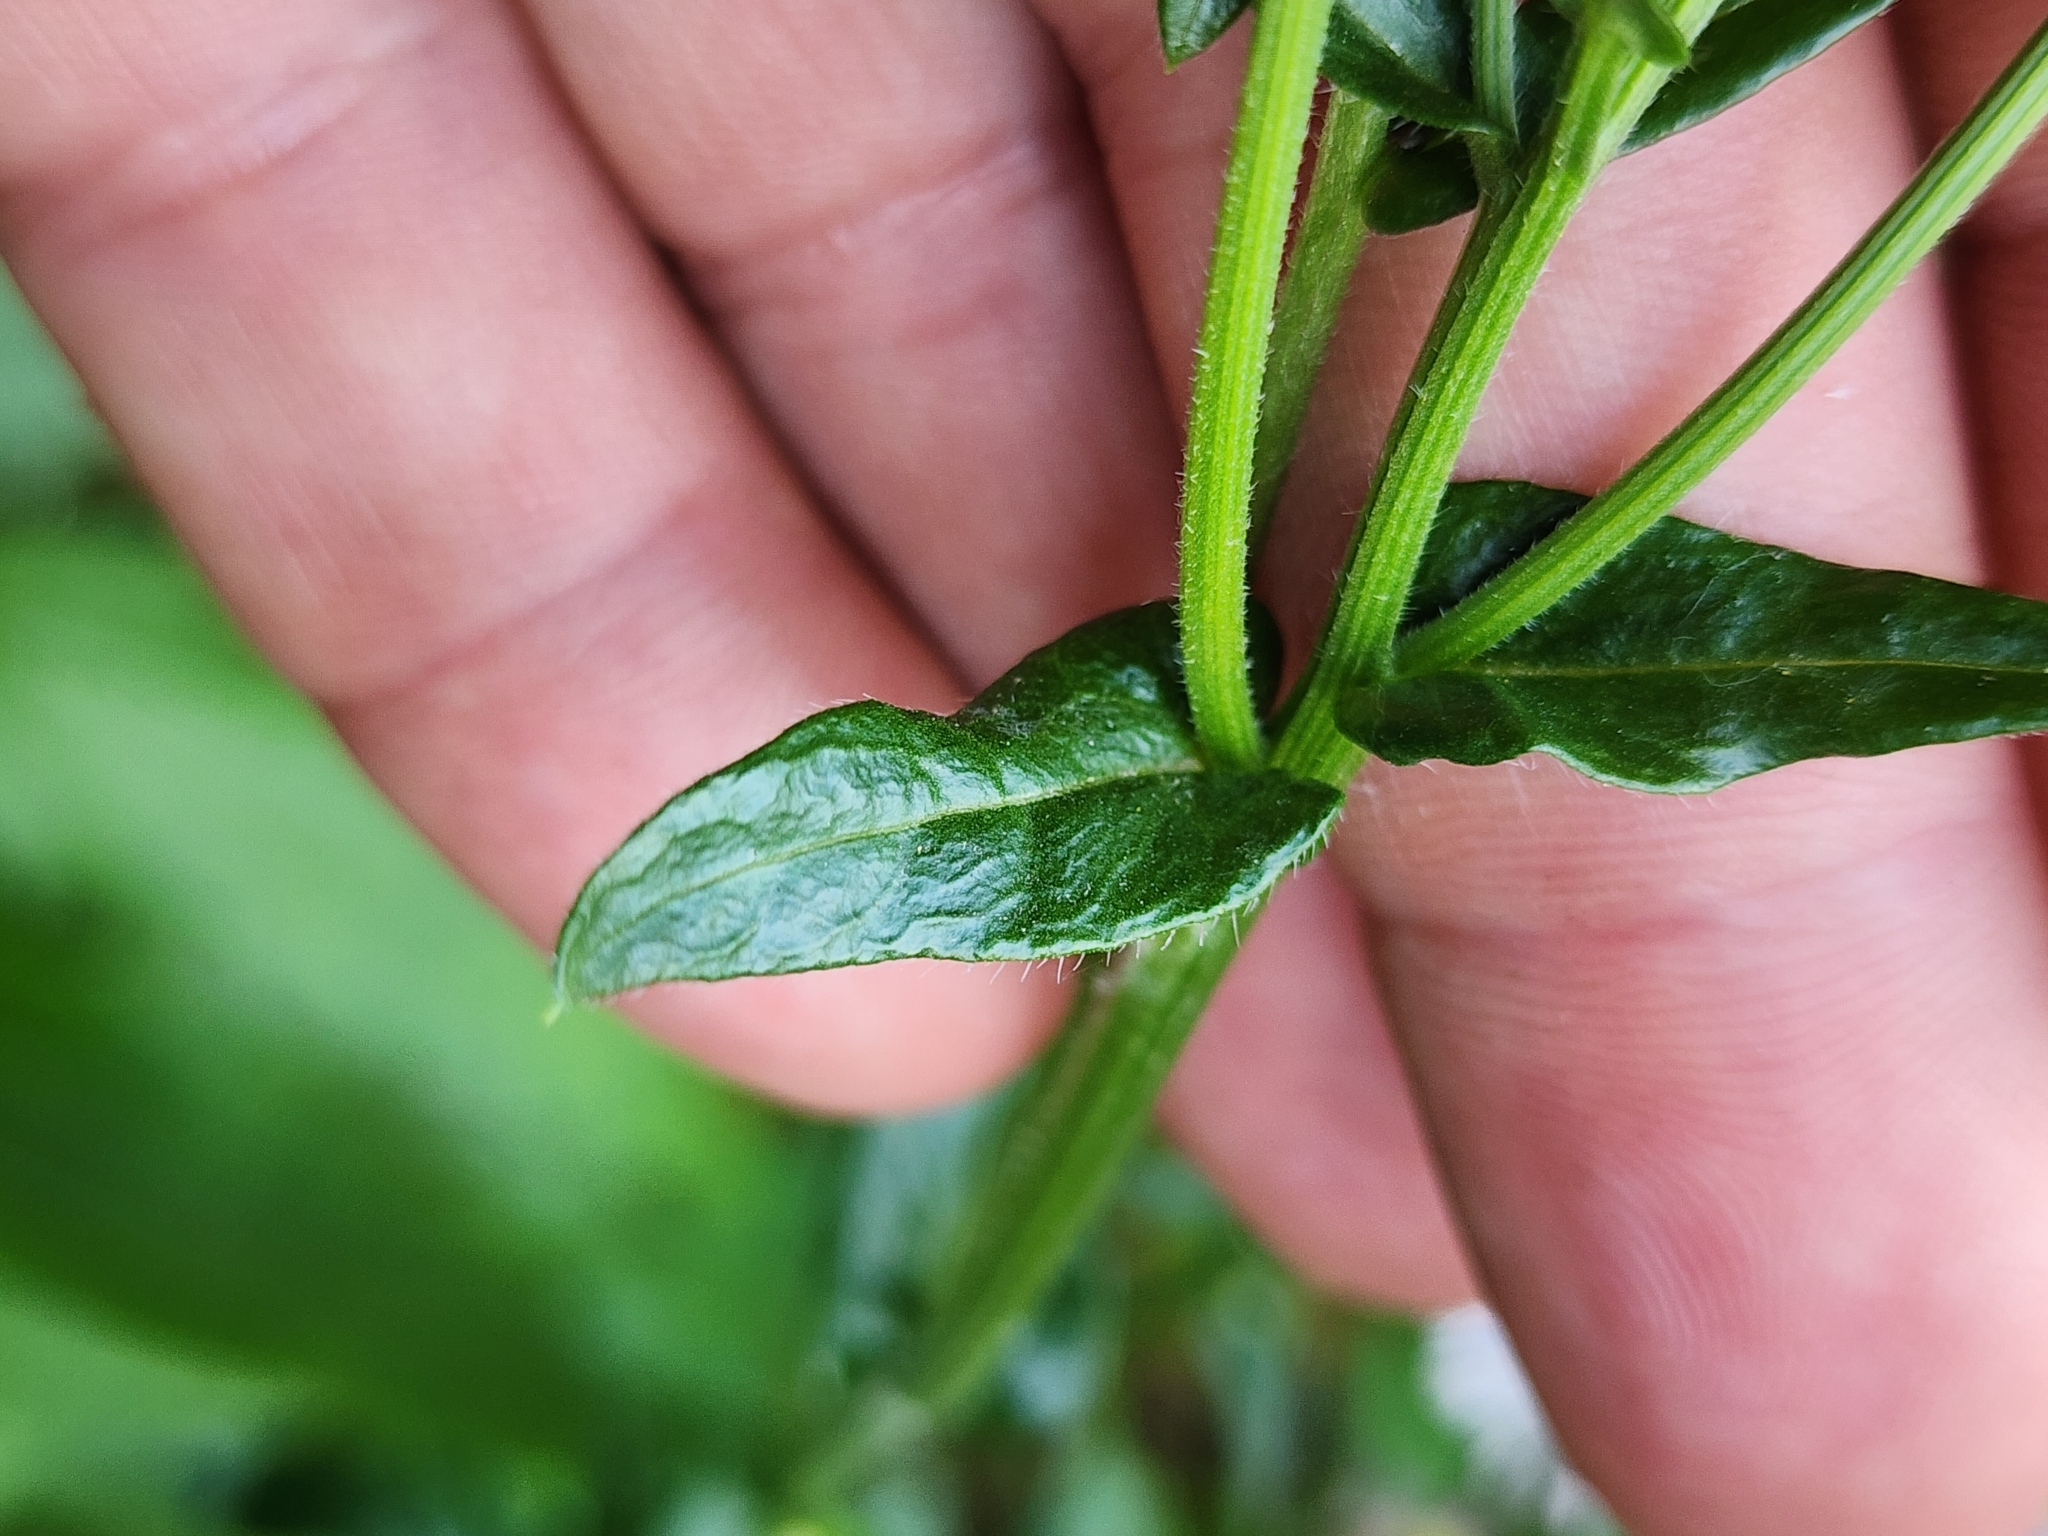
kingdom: Plantae
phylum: Tracheophyta
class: Magnoliopsida
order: Asterales
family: Asteraceae
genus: Erigeron
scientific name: Erigeron philadelphicus
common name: Robin's-plantain
